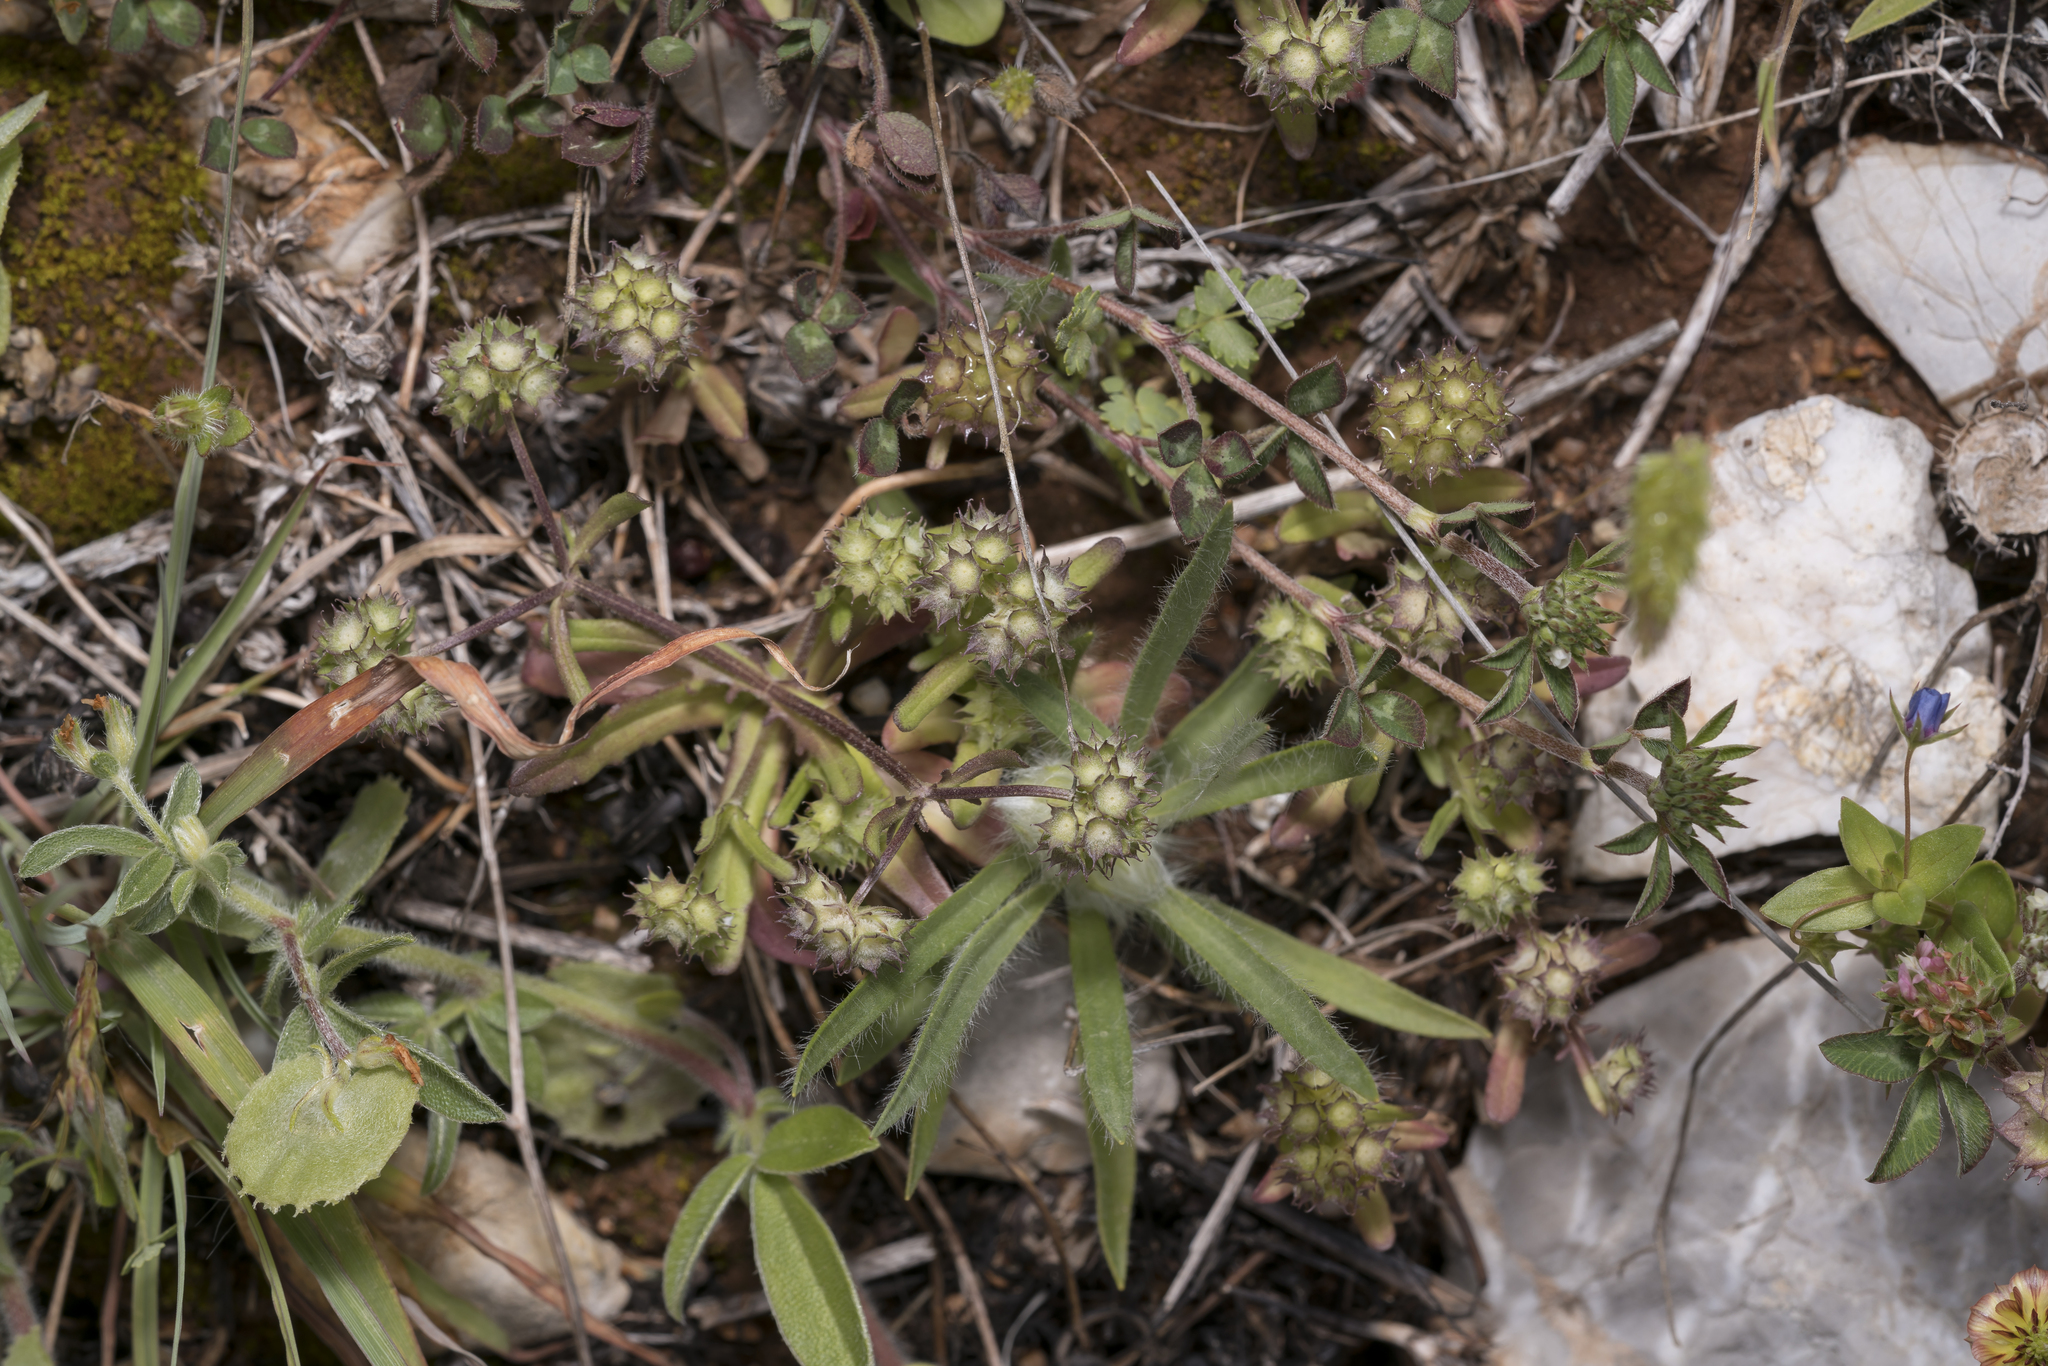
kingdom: Plantae
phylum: Tracheophyta
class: Magnoliopsida
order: Dipsacales
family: Caprifoliaceae
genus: Valerianella
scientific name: Valerianella discoidea
